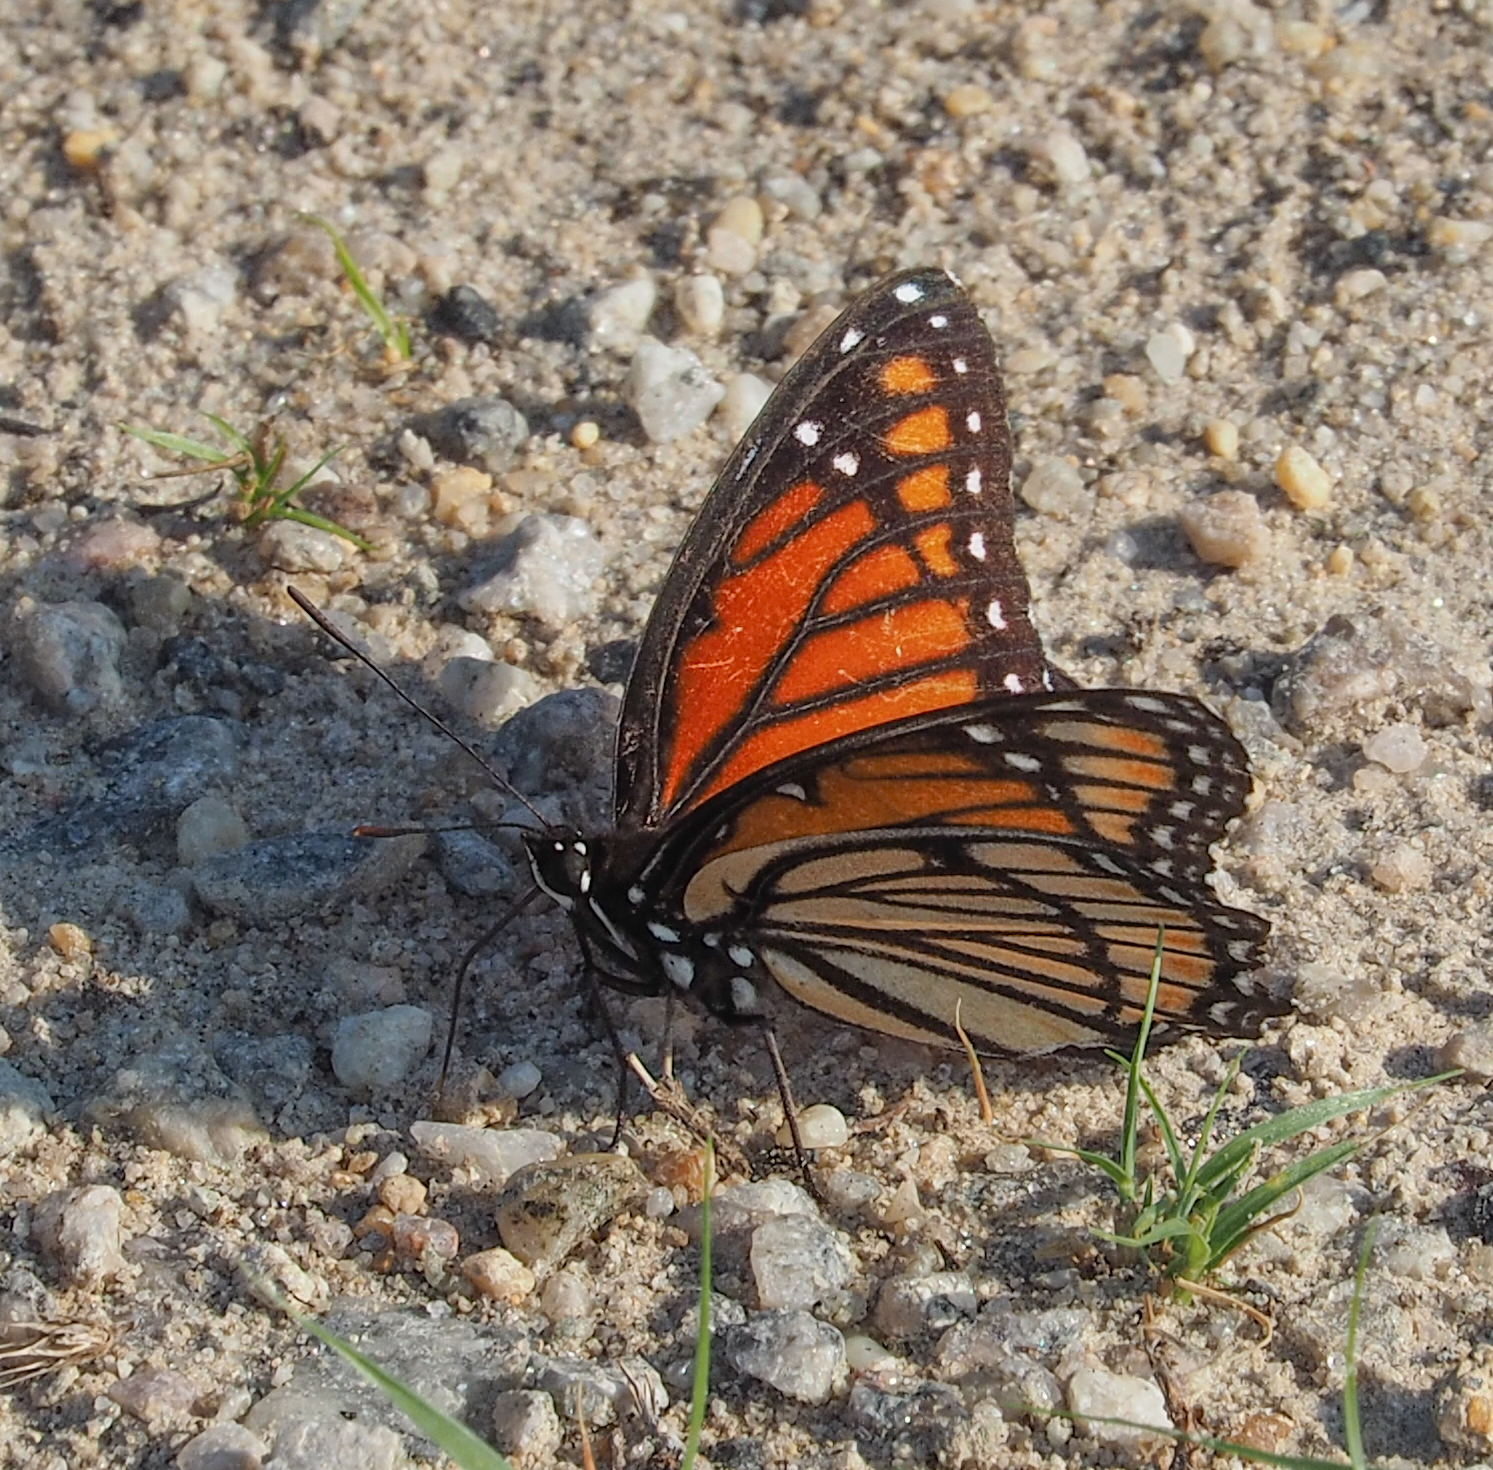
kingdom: Animalia
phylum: Arthropoda
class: Insecta
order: Lepidoptera
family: Nymphalidae
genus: Limenitis
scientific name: Limenitis archippus
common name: Viceroy
